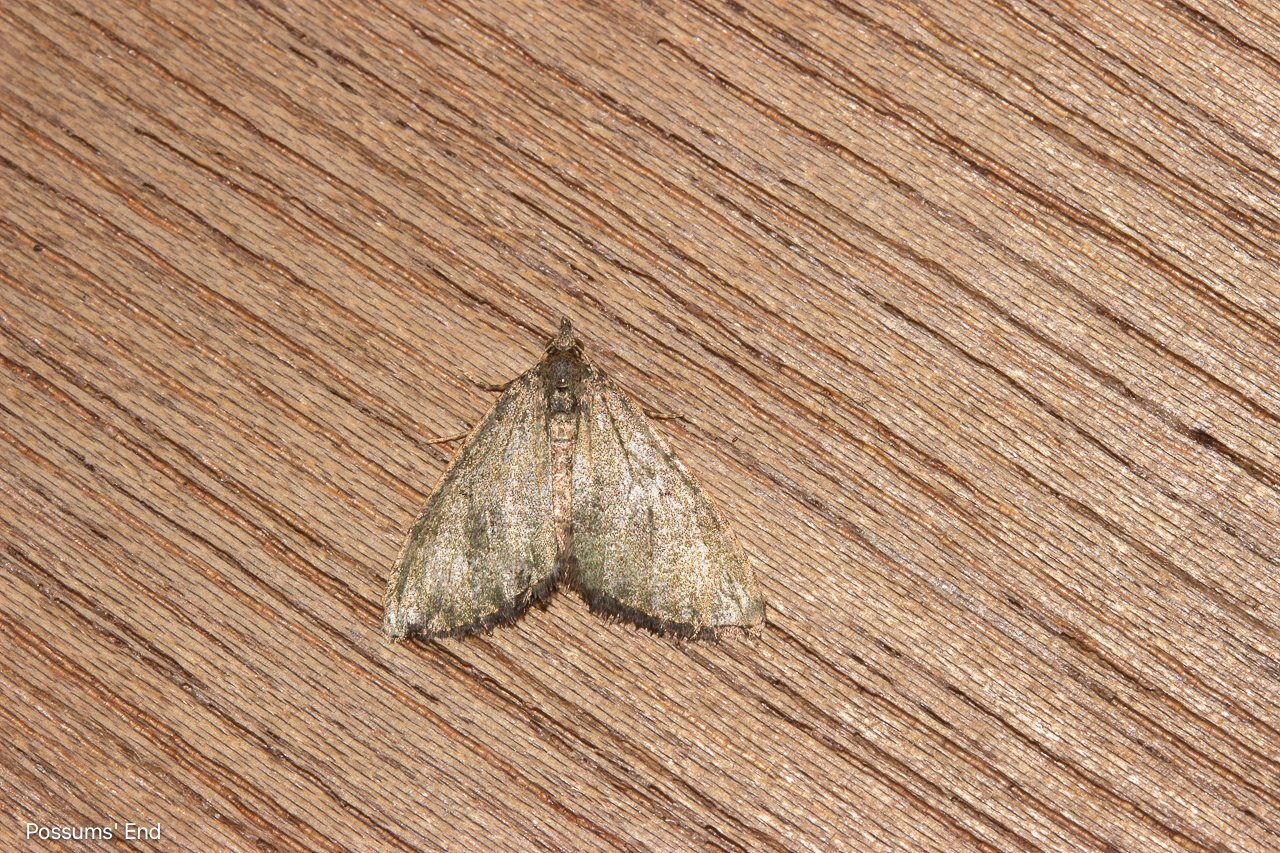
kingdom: Animalia
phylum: Arthropoda
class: Insecta
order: Lepidoptera
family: Geometridae
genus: Epyaxa
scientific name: Epyaxa rosearia
